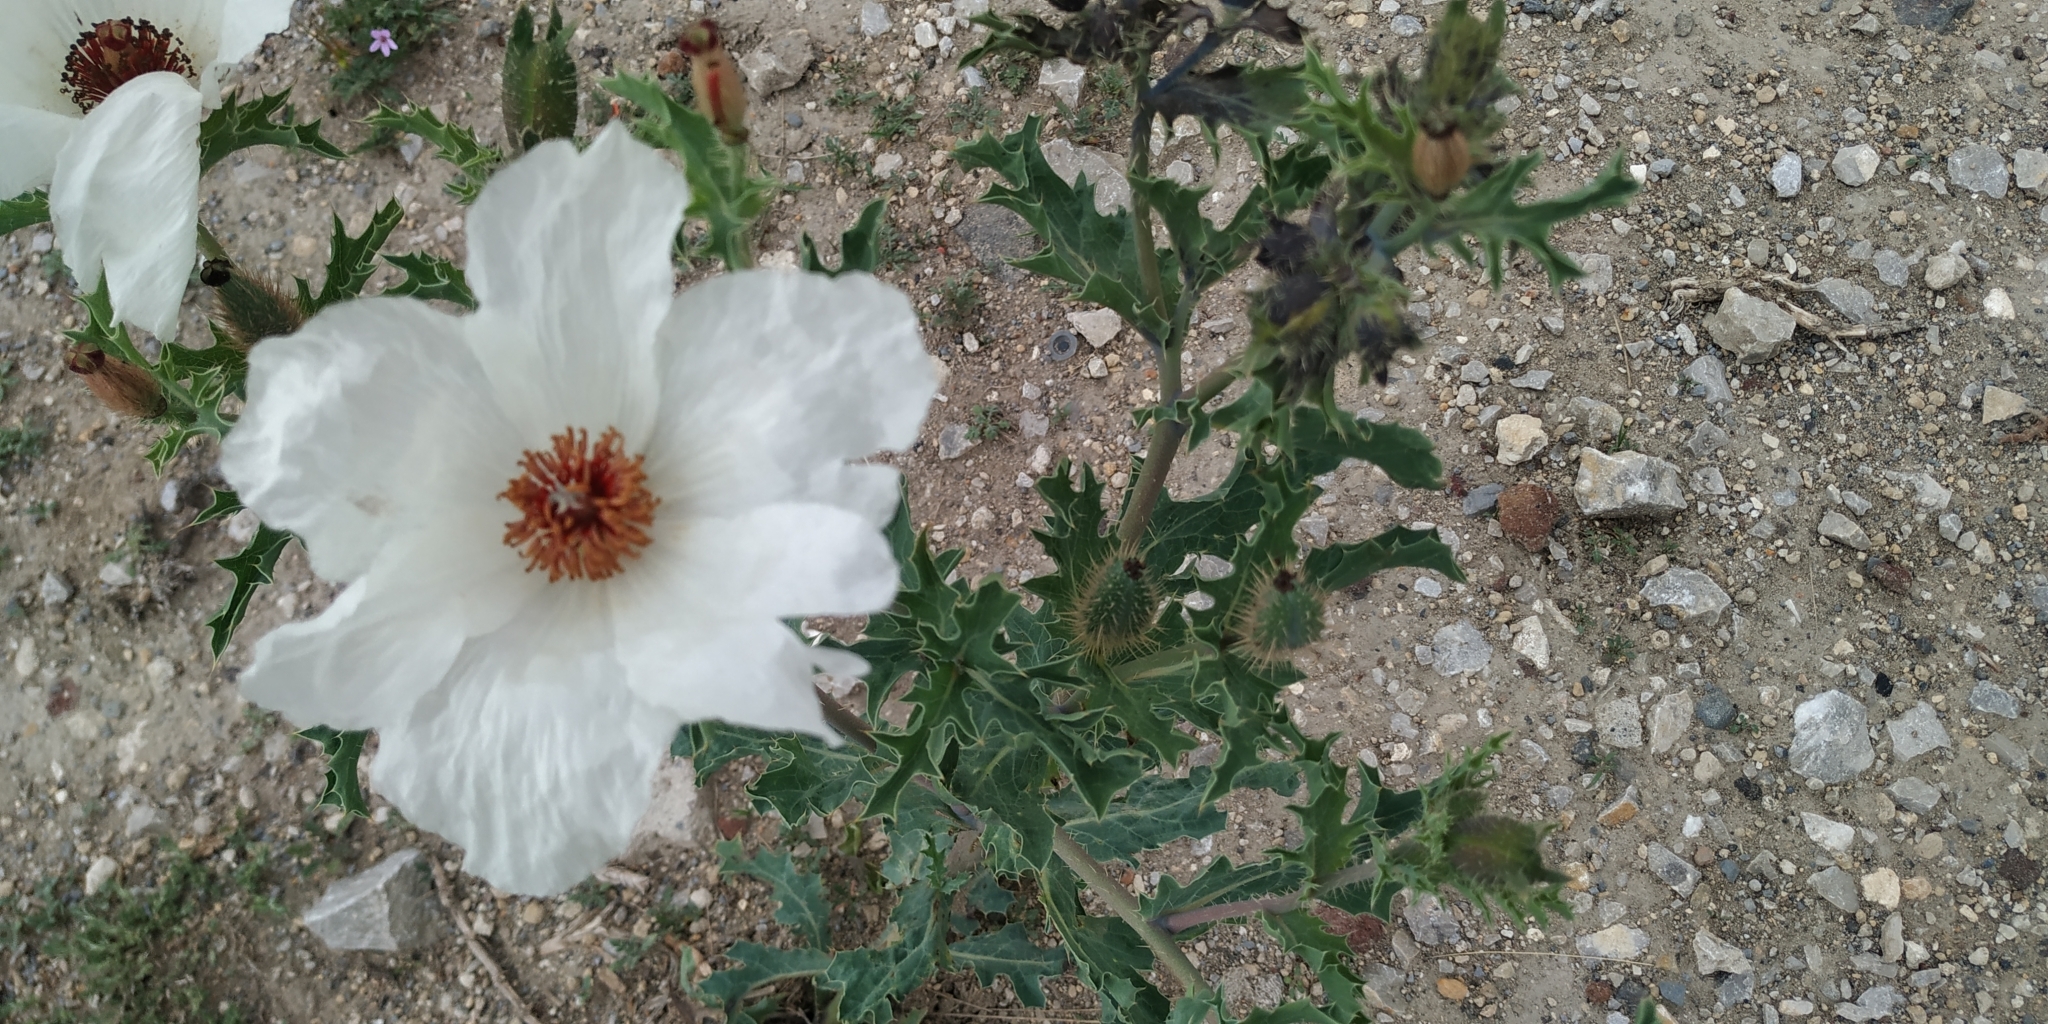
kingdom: Plantae
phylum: Tracheophyta
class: Magnoliopsida
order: Ranunculales
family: Papaveraceae
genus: Argemone
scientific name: Argemone platyceras
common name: Crested-poppy
